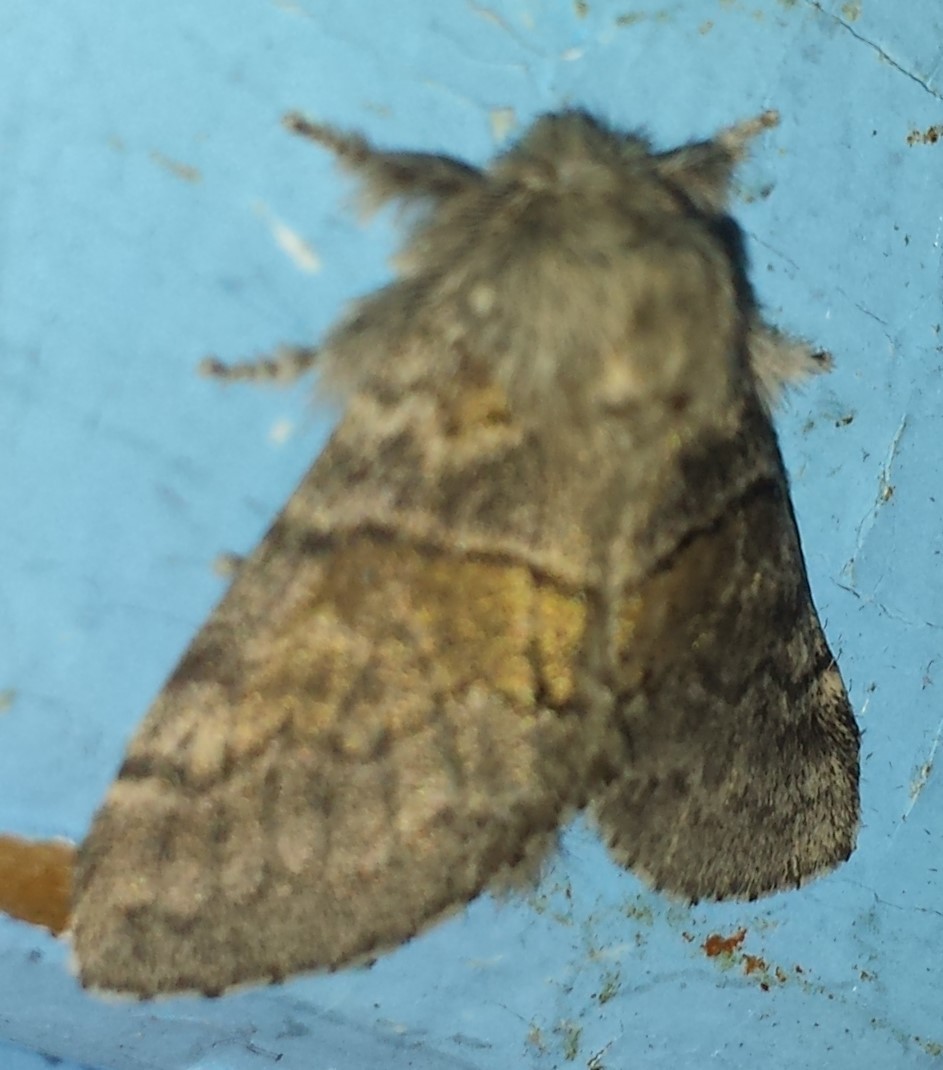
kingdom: Animalia
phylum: Arthropoda
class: Insecta
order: Lepidoptera
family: Notodontidae
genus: Gluphisia
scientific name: Gluphisia septentrionis
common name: Common gluphisia
